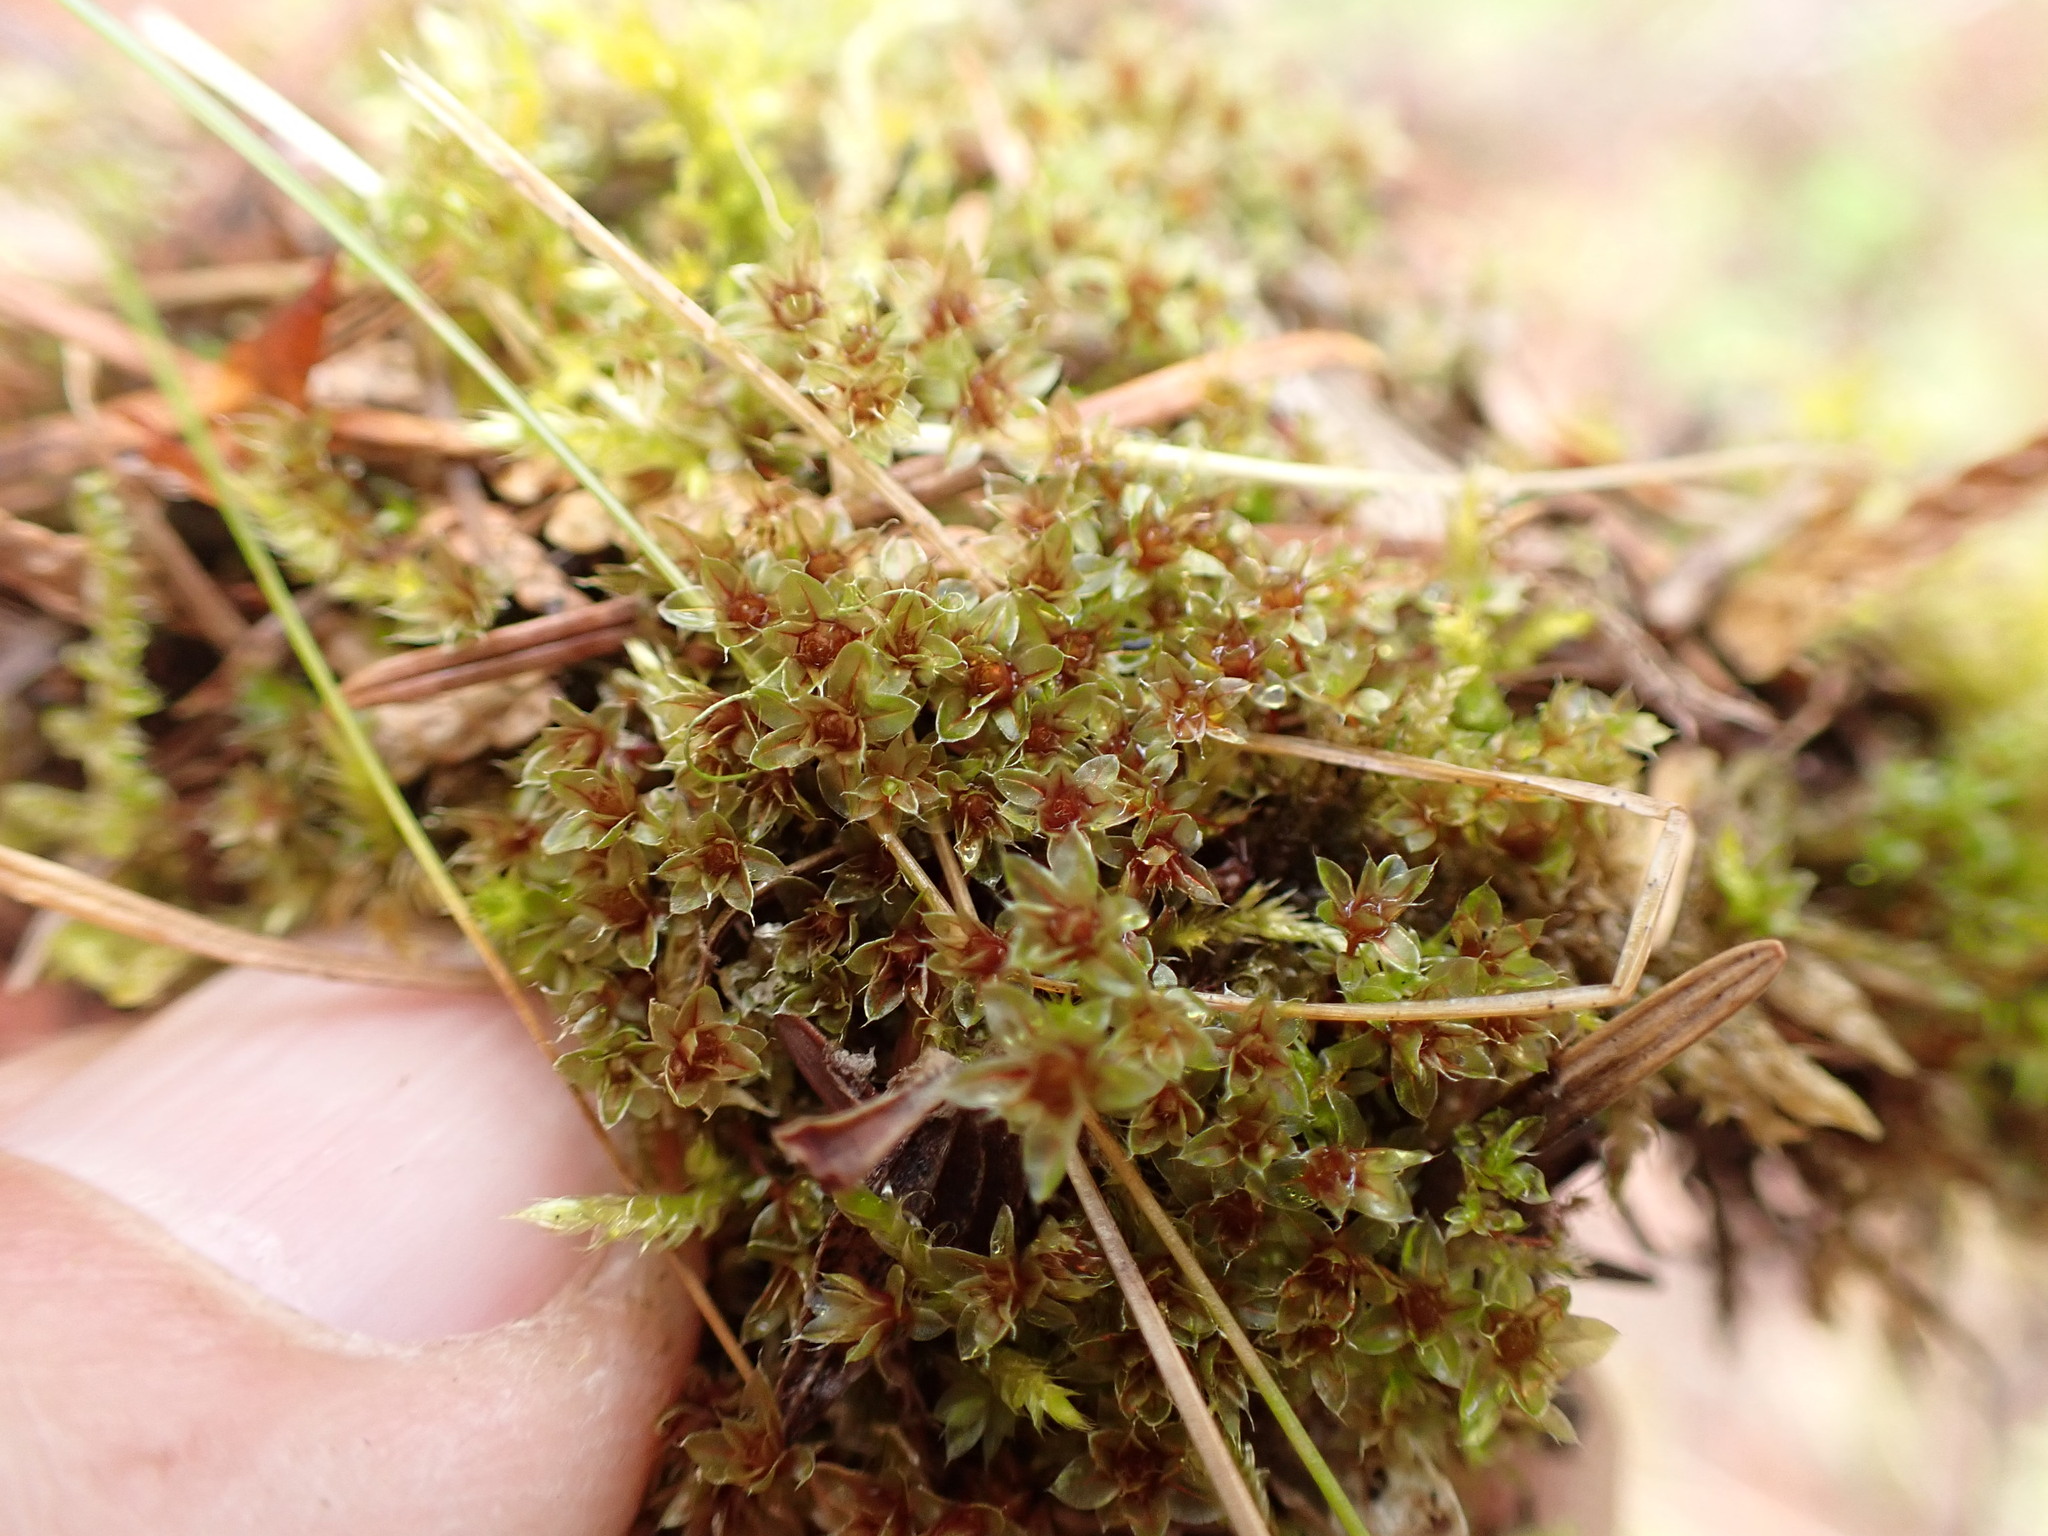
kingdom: Plantae
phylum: Bryophyta
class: Bryopsida
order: Bryales
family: Bryaceae
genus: Rosulabryum
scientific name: Rosulabryum capillare
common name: Capillary thread-moss
